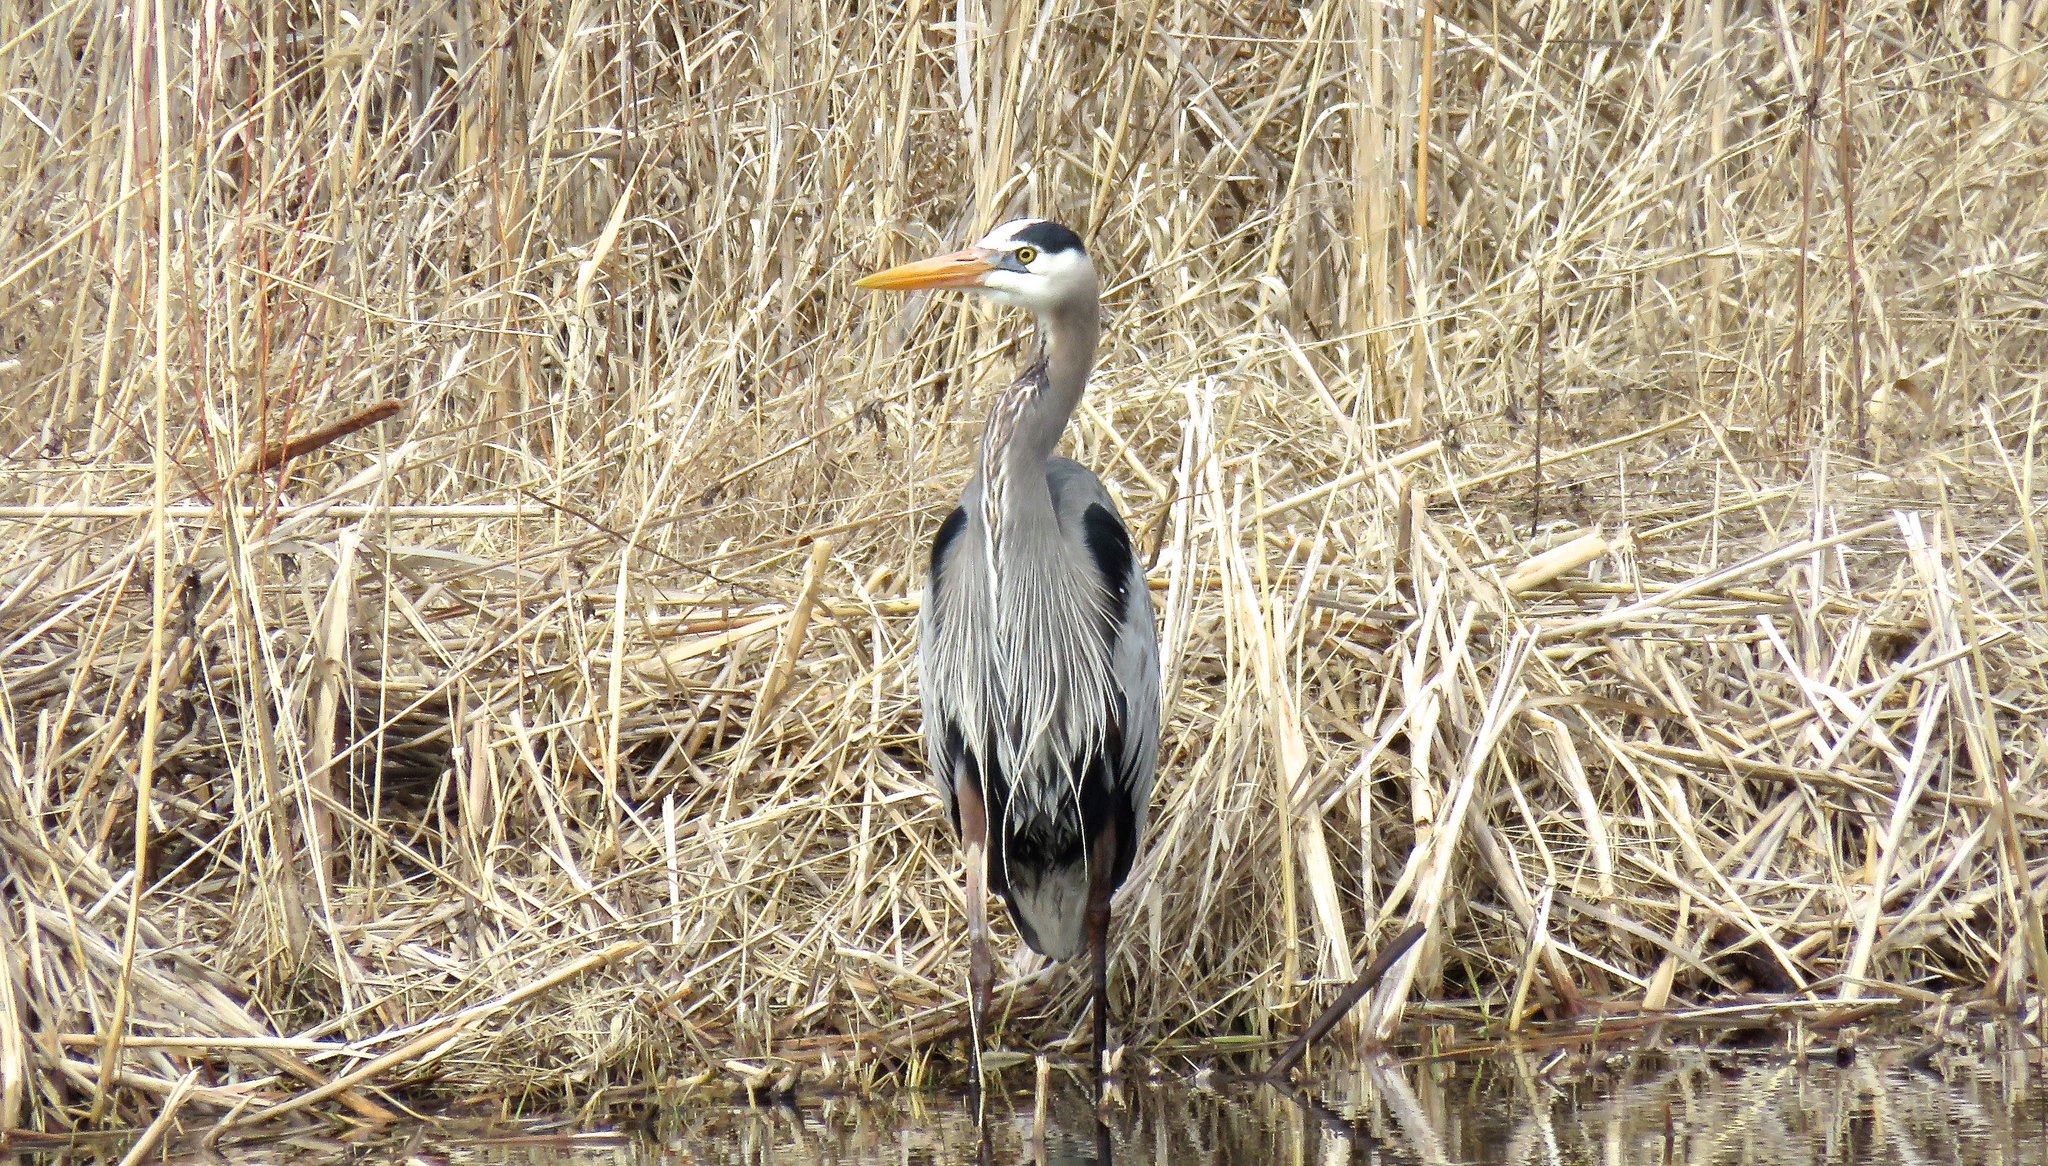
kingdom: Animalia
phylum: Chordata
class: Aves
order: Pelecaniformes
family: Ardeidae
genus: Ardea
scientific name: Ardea herodias
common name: Great blue heron
